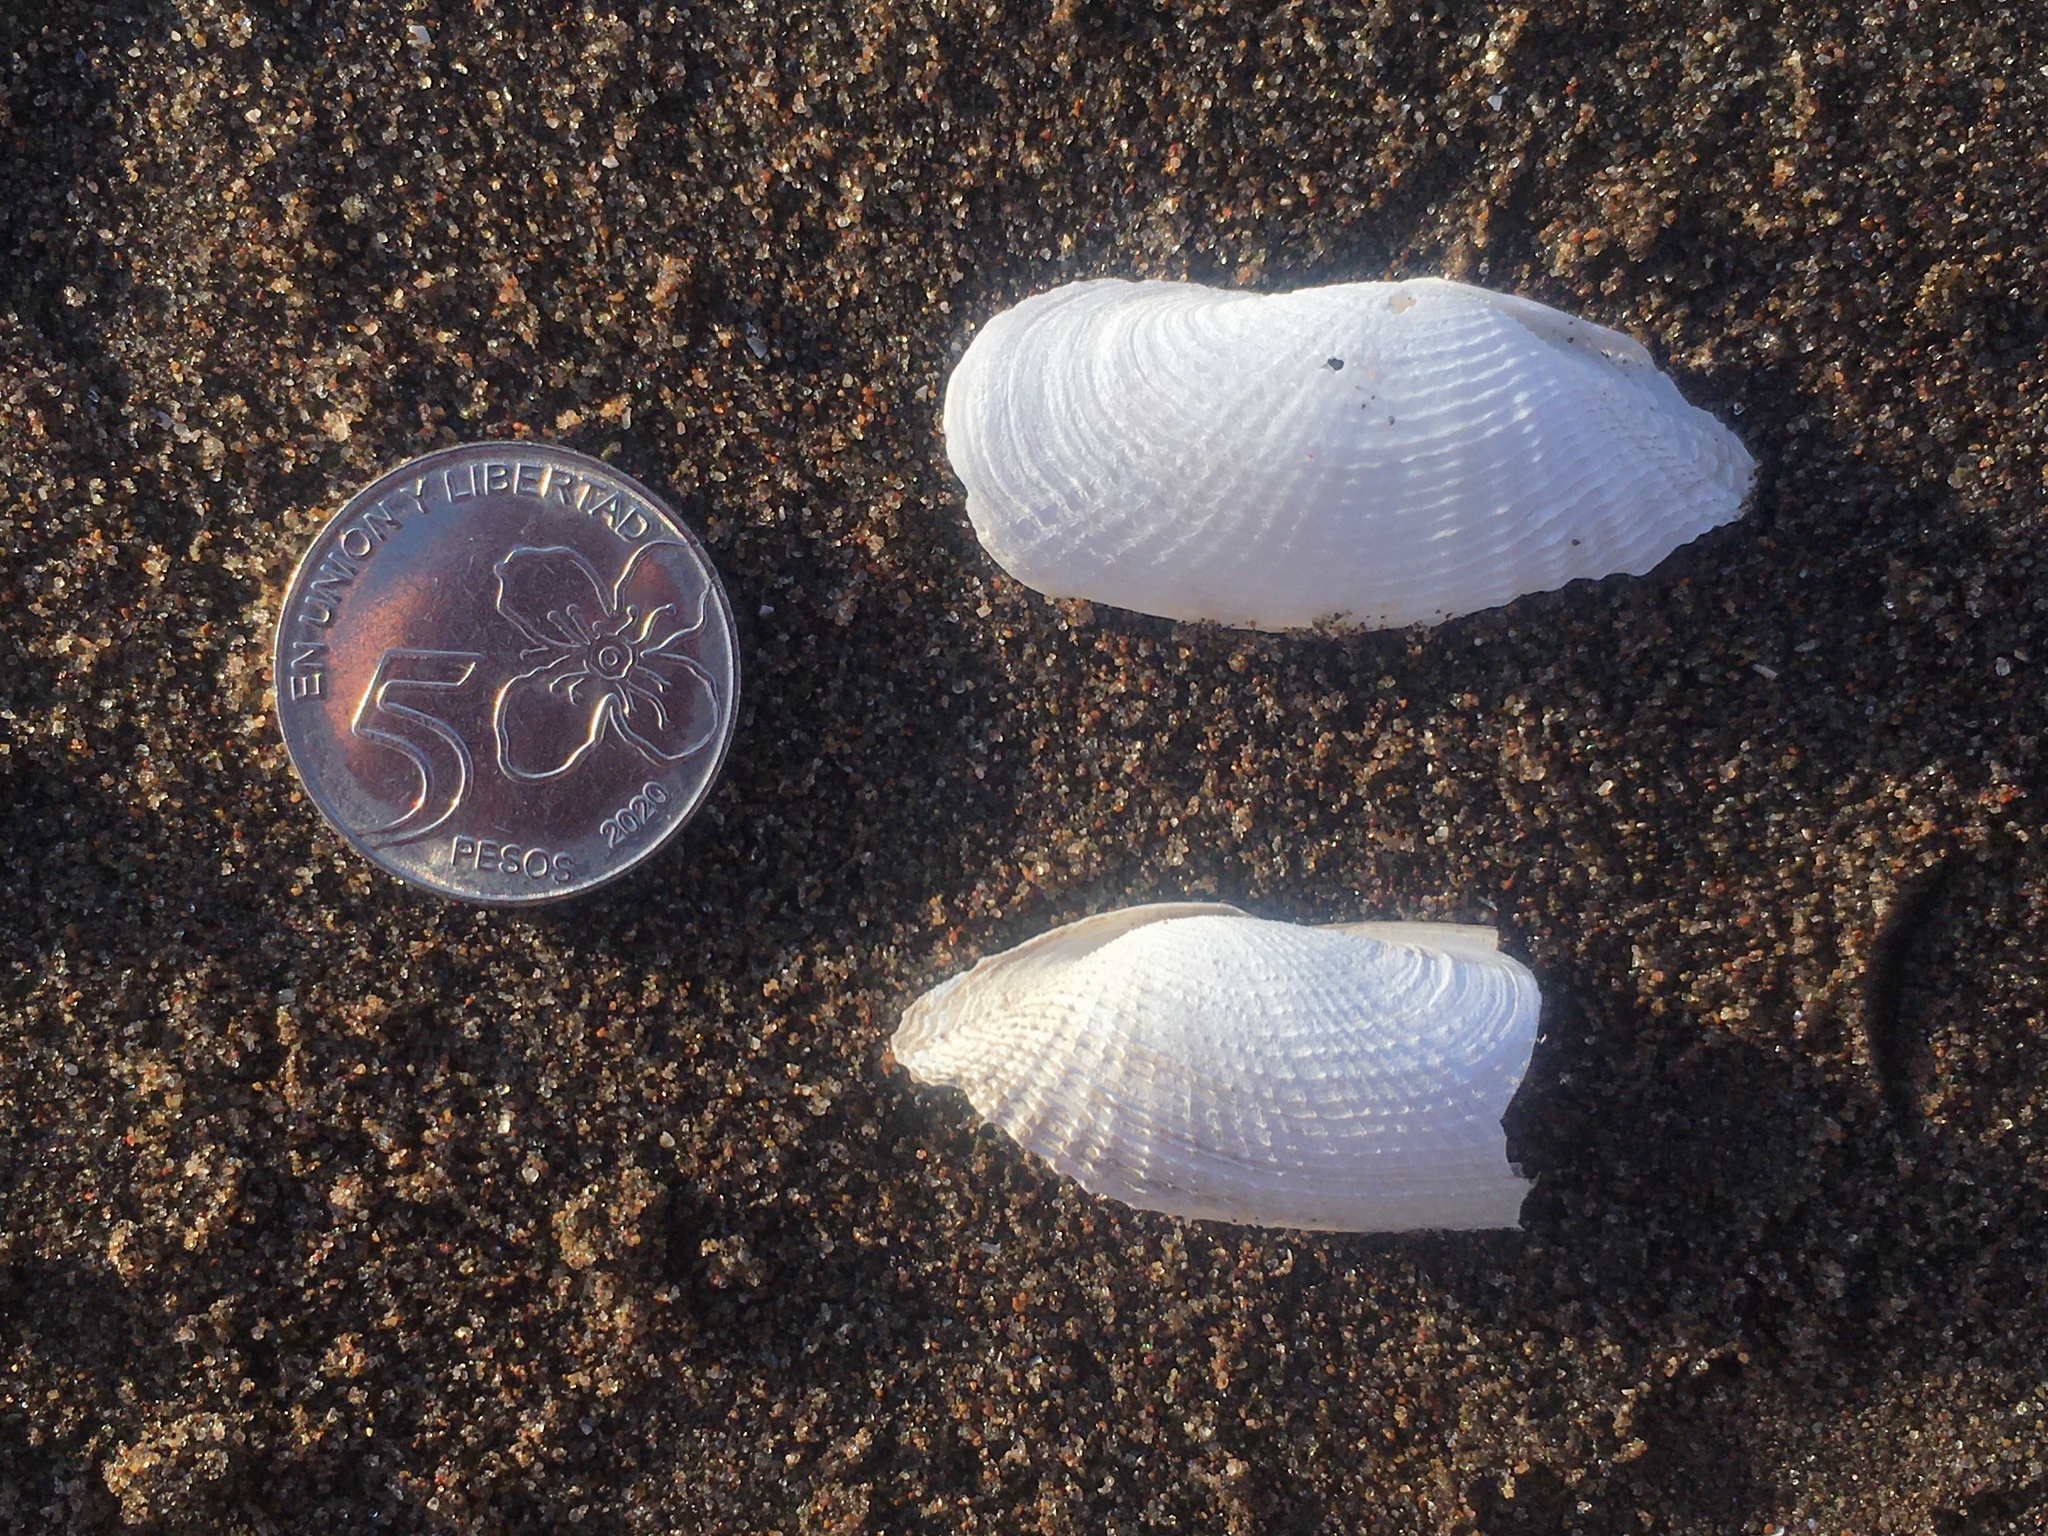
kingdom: Animalia
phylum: Mollusca
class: Bivalvia
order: Myida
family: Pholadidae
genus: Barnea
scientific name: Barnea lamellosa
